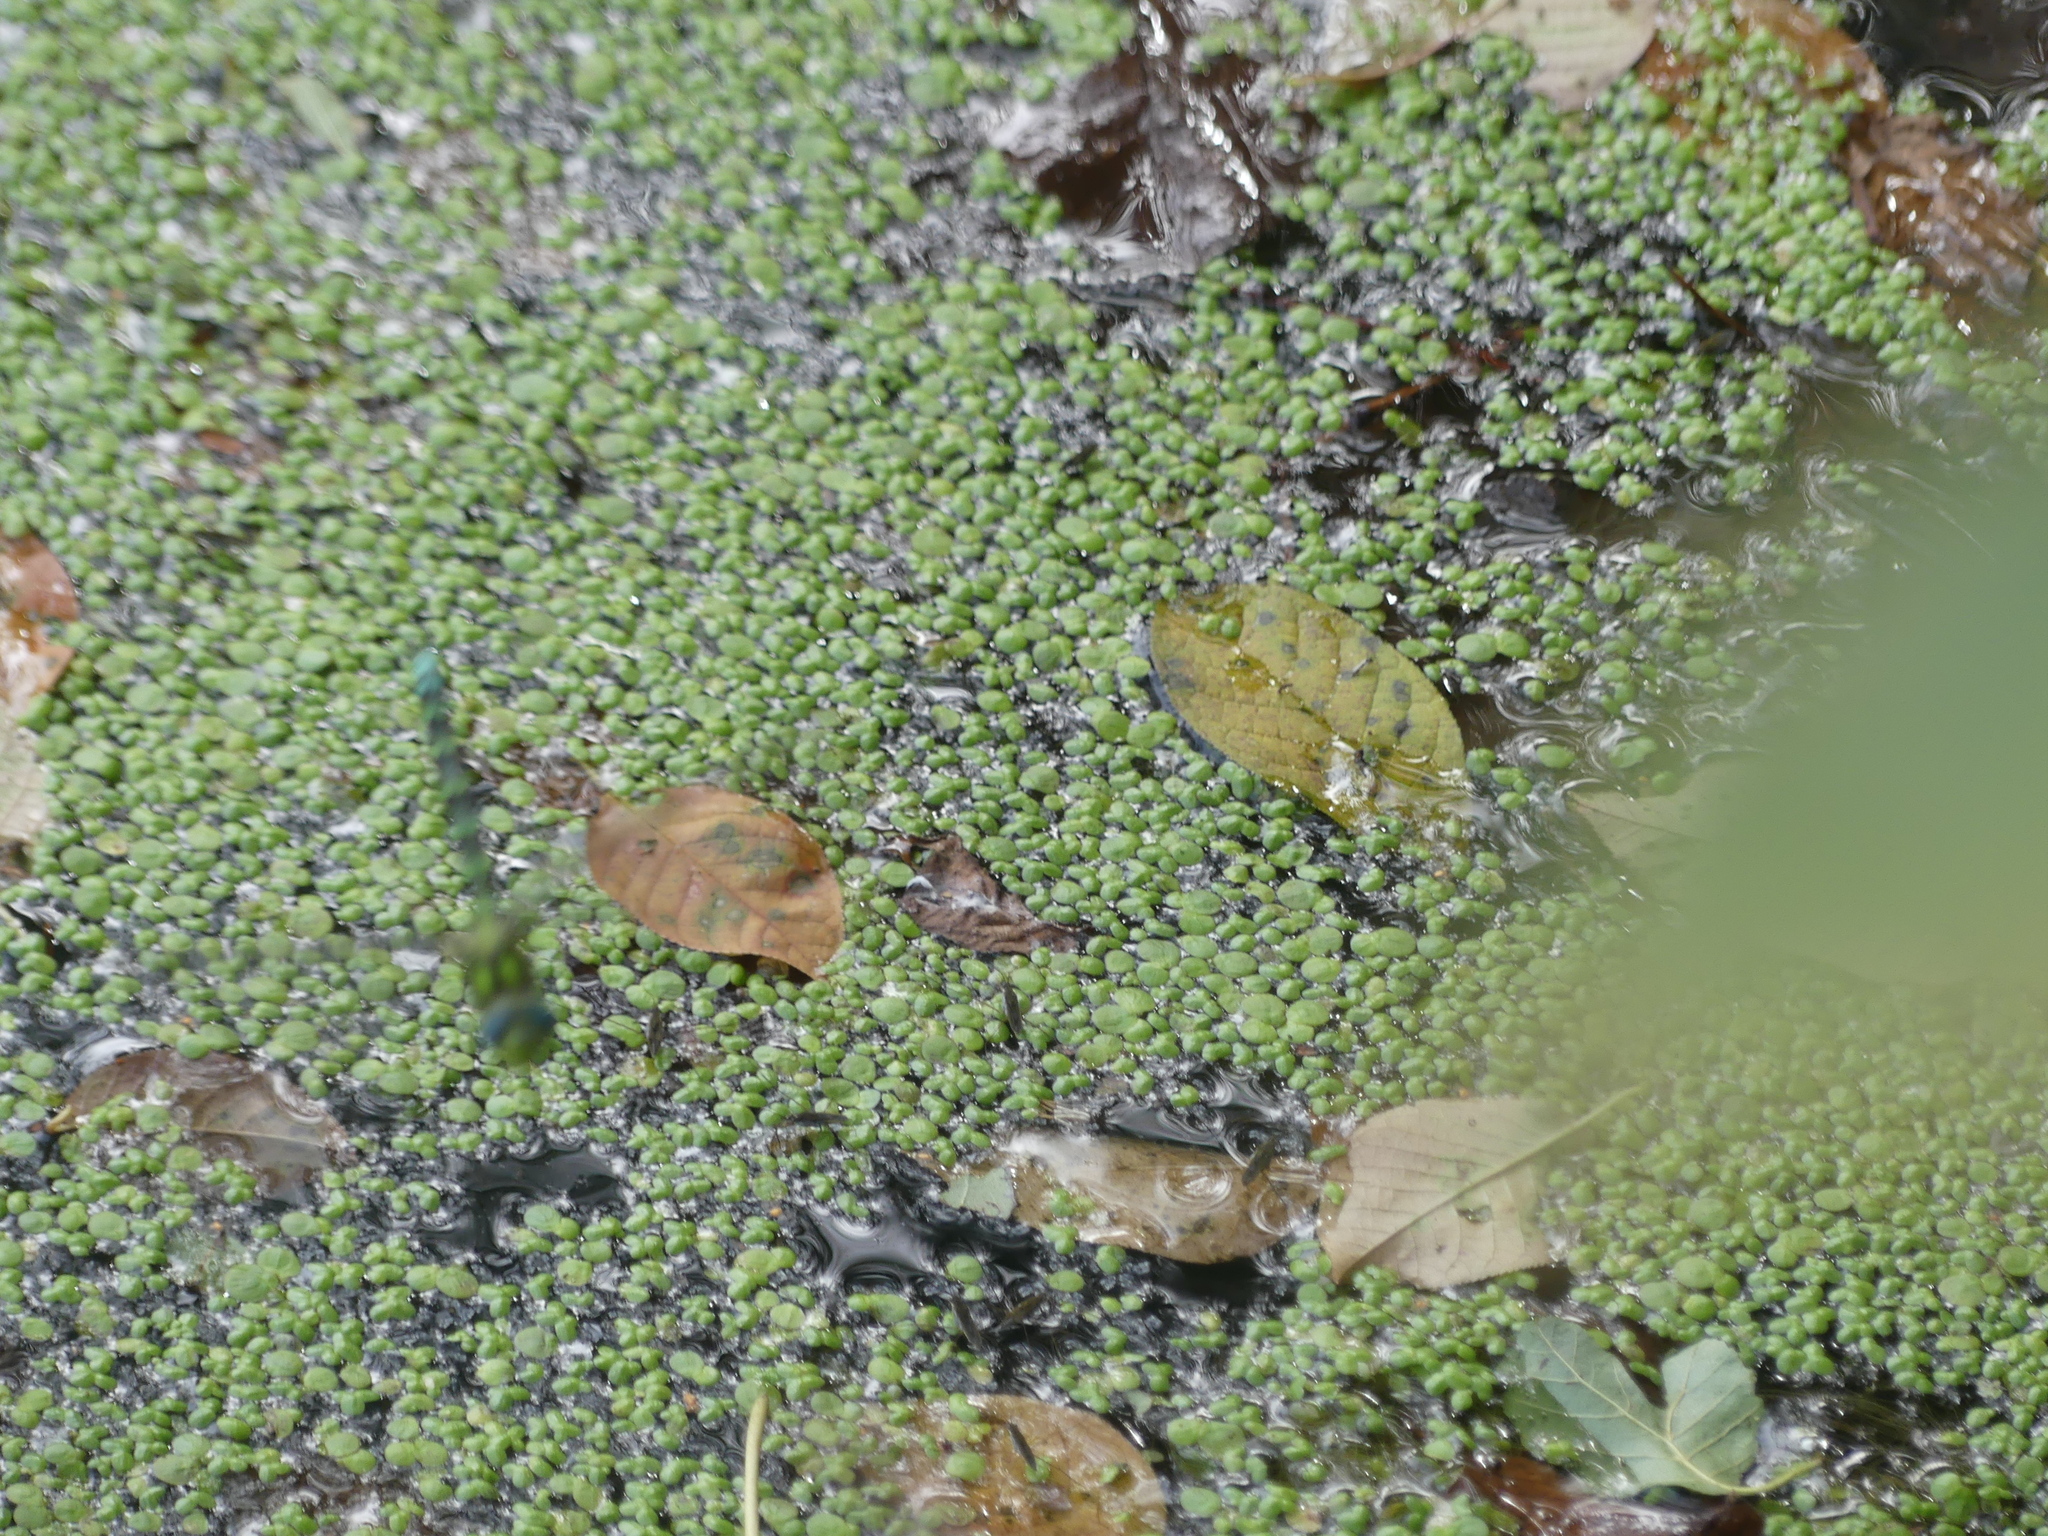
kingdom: Animalia
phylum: Arthropoda
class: Insecta
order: Odonata
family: Aeshnidae
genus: Aeshna
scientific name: Aeshna cyanea
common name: Southern hawker
